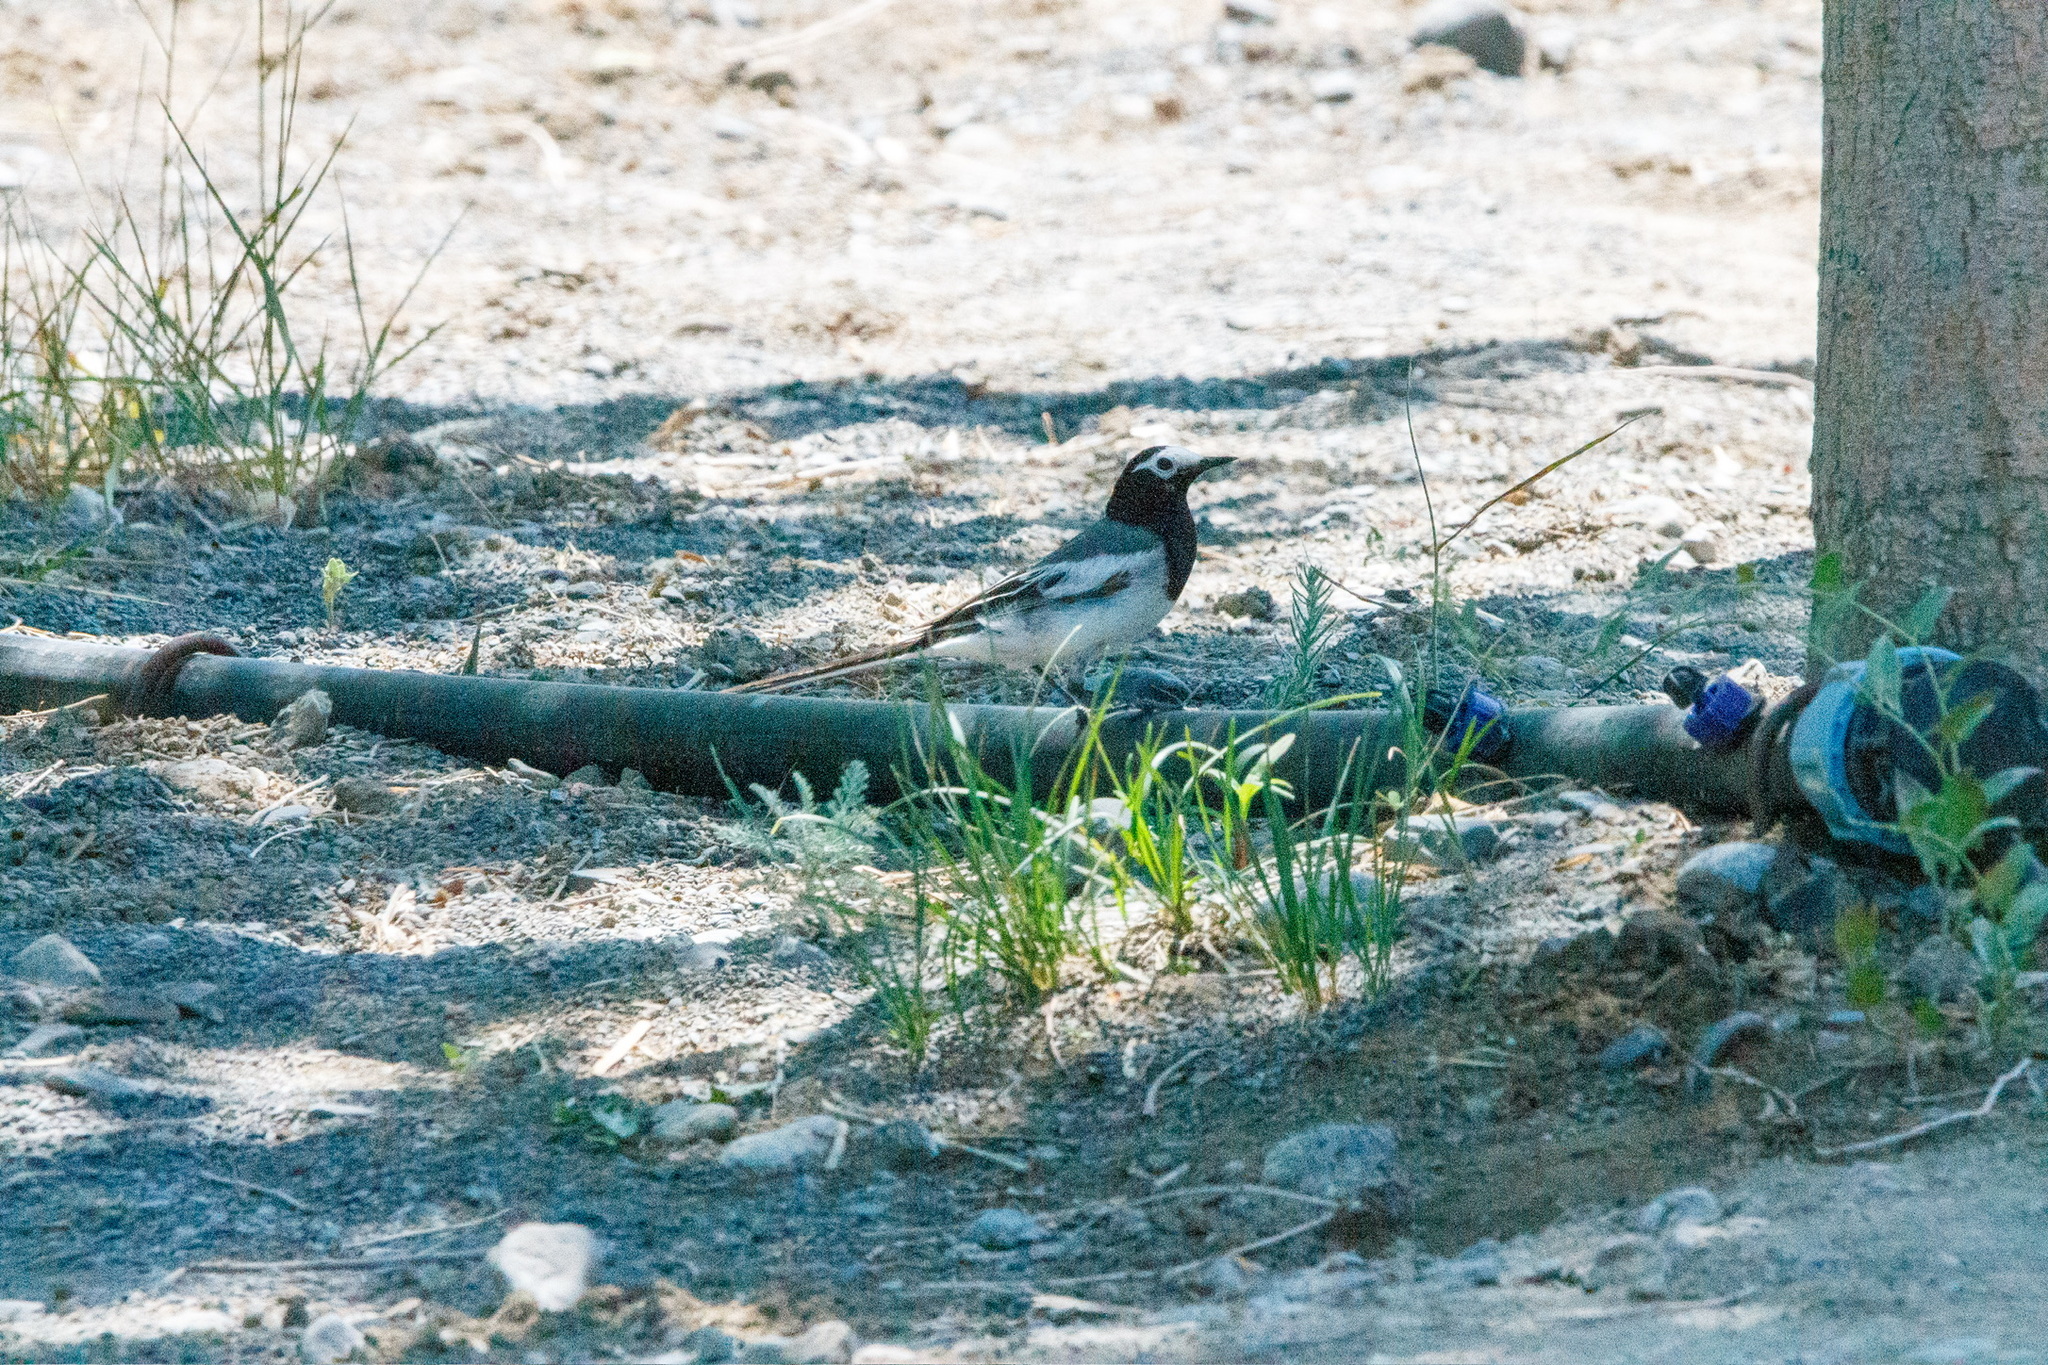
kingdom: Animalia
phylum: Chordata
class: Aves
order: Passeriformes
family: Motacillidae
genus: Motacilla
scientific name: Motacilla alba
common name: White wagtail
